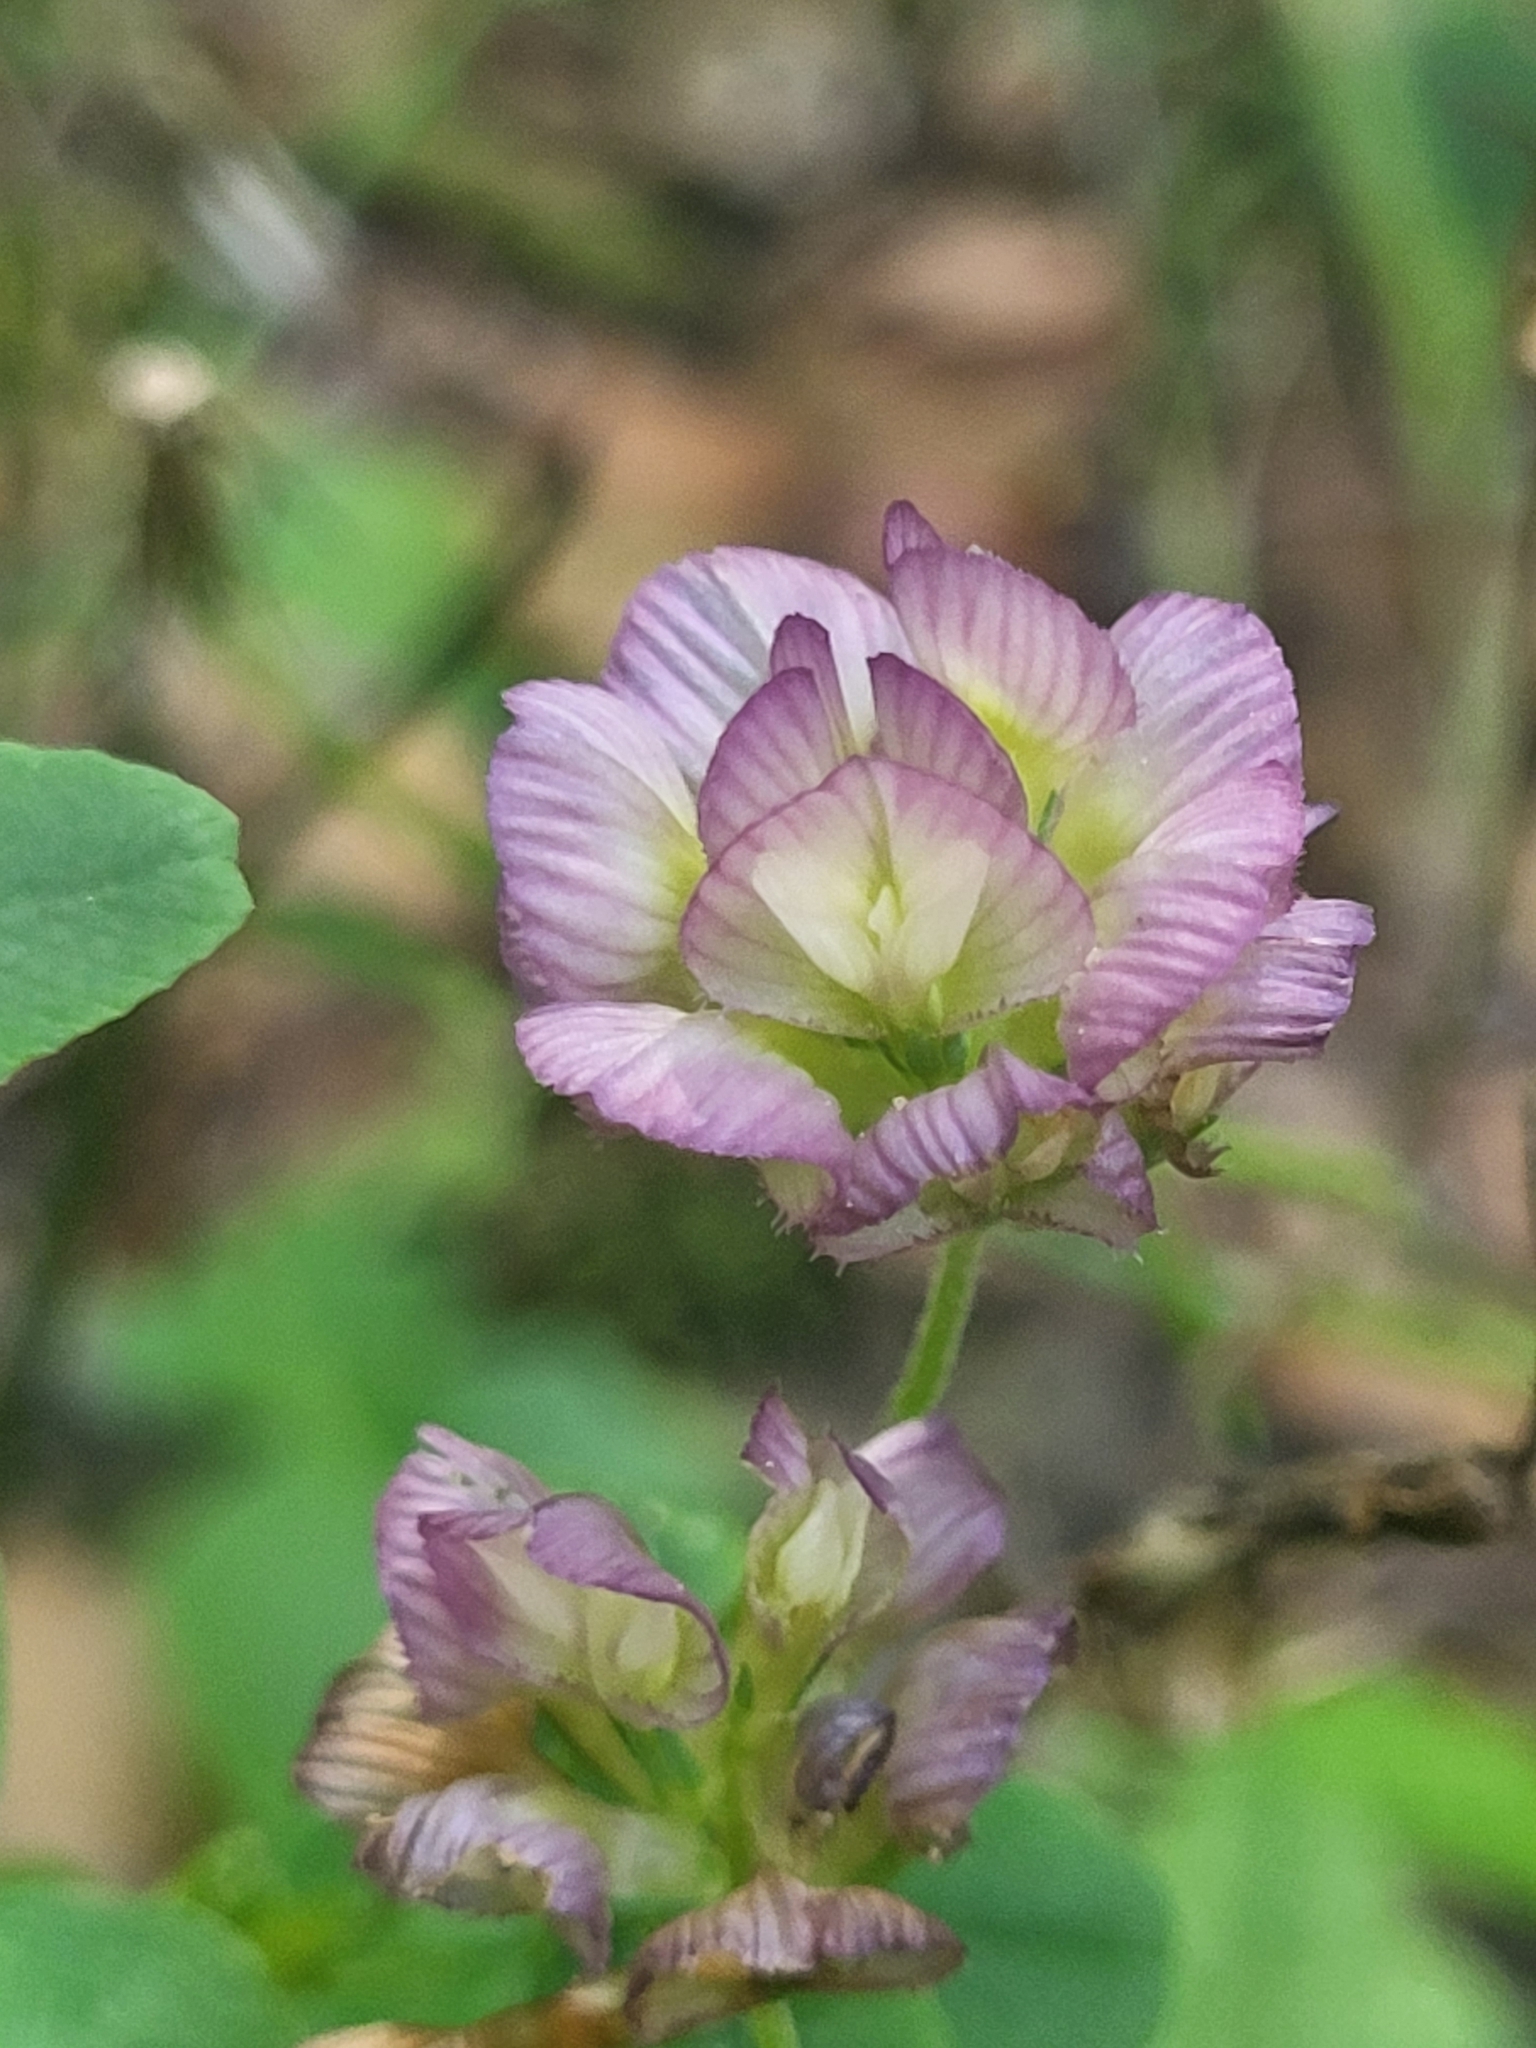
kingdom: Plantae
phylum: Tracheophyta
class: Magnoliopsida
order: Fabales
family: Fabaceae
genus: Trifolium
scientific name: Trifolium grandiflorum
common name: Large-flower hop clover
